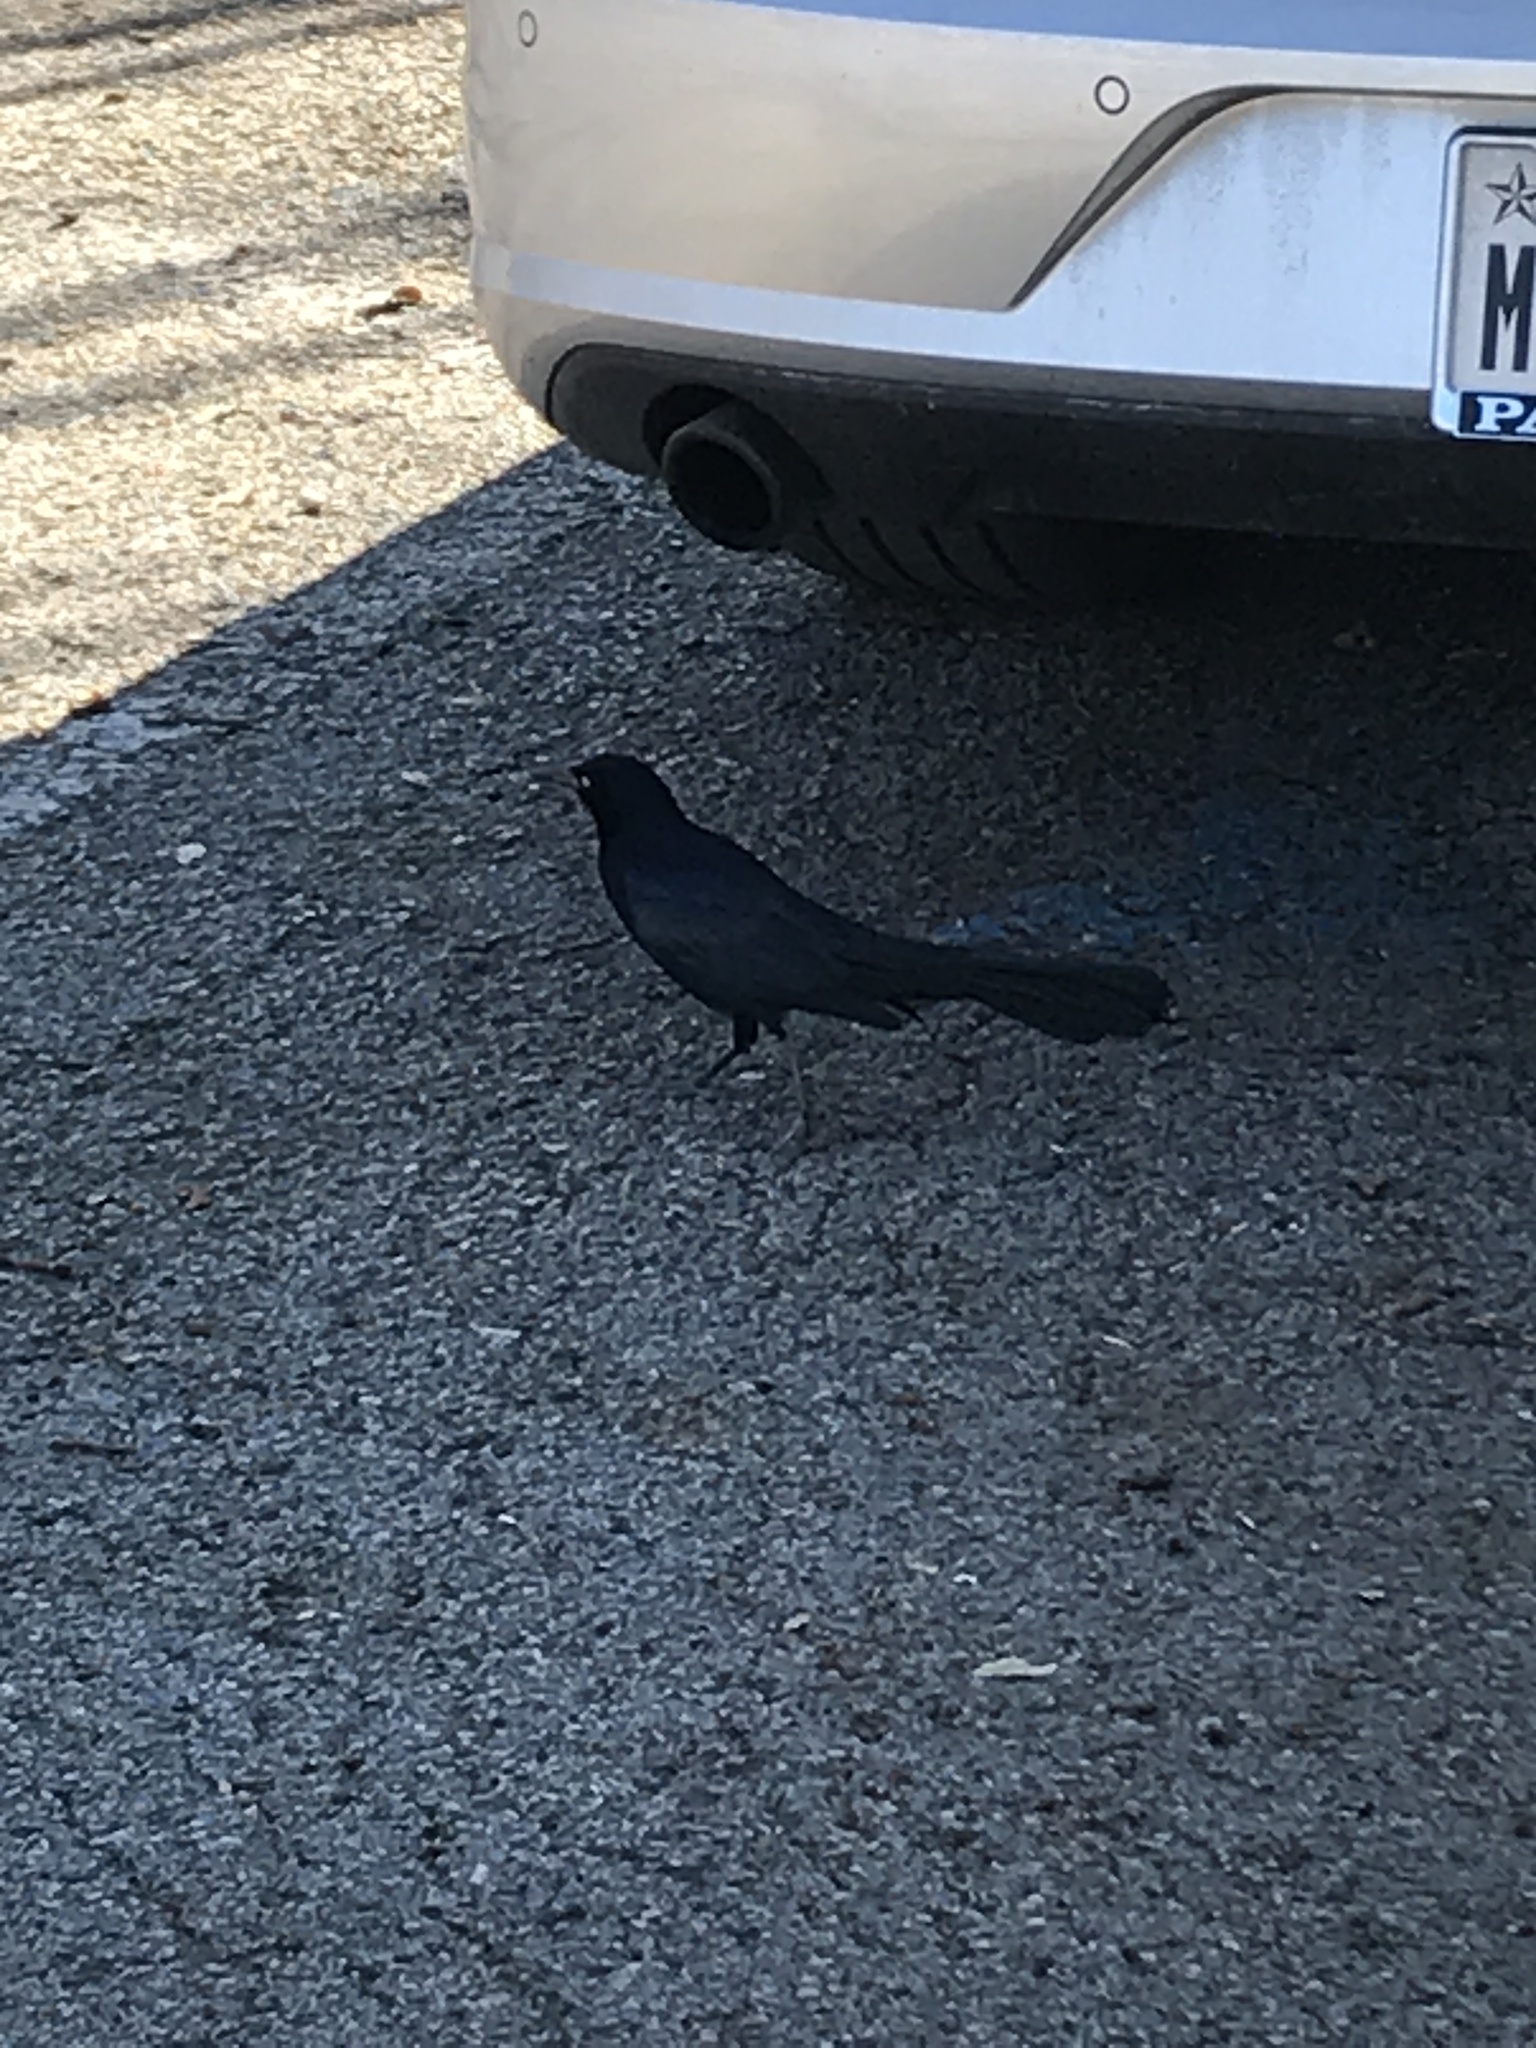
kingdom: Animalia
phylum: Chordata
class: Aves
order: Passeriformes
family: Icteridae
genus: Quiscalus
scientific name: Quiscalus mexicanus
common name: Great-tailed grackle
